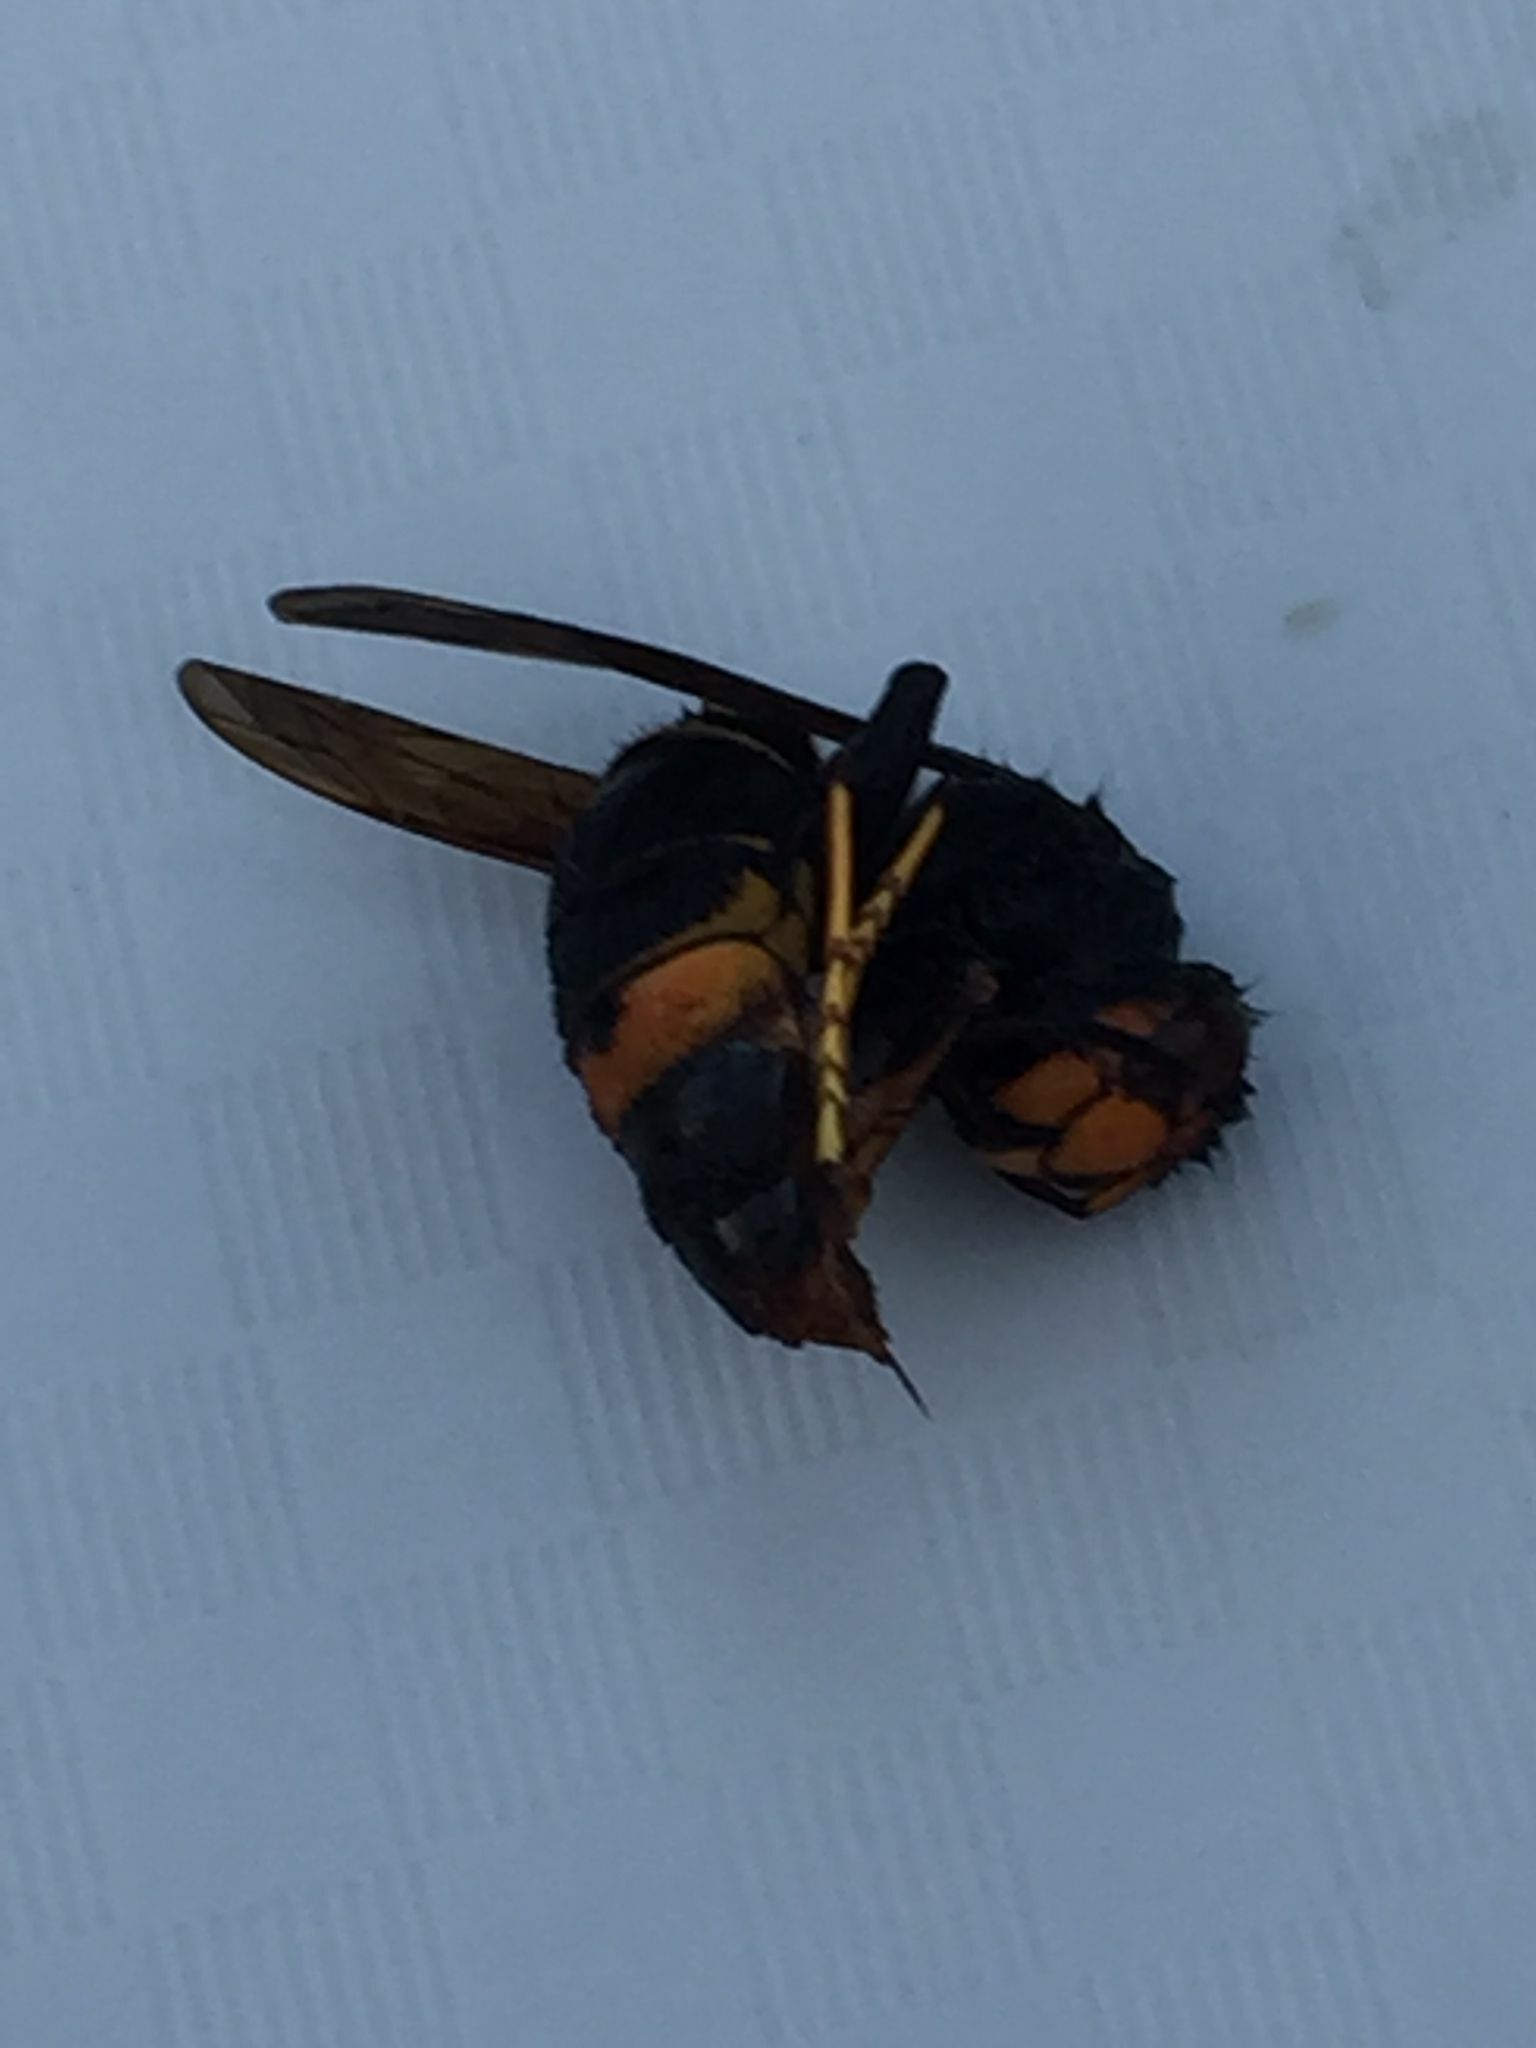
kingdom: Animalia
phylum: Arthropoda
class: Insecta
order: Hymenoptera
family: Vespidae
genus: Vespa
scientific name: Vespa velutina
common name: Asian hornet
